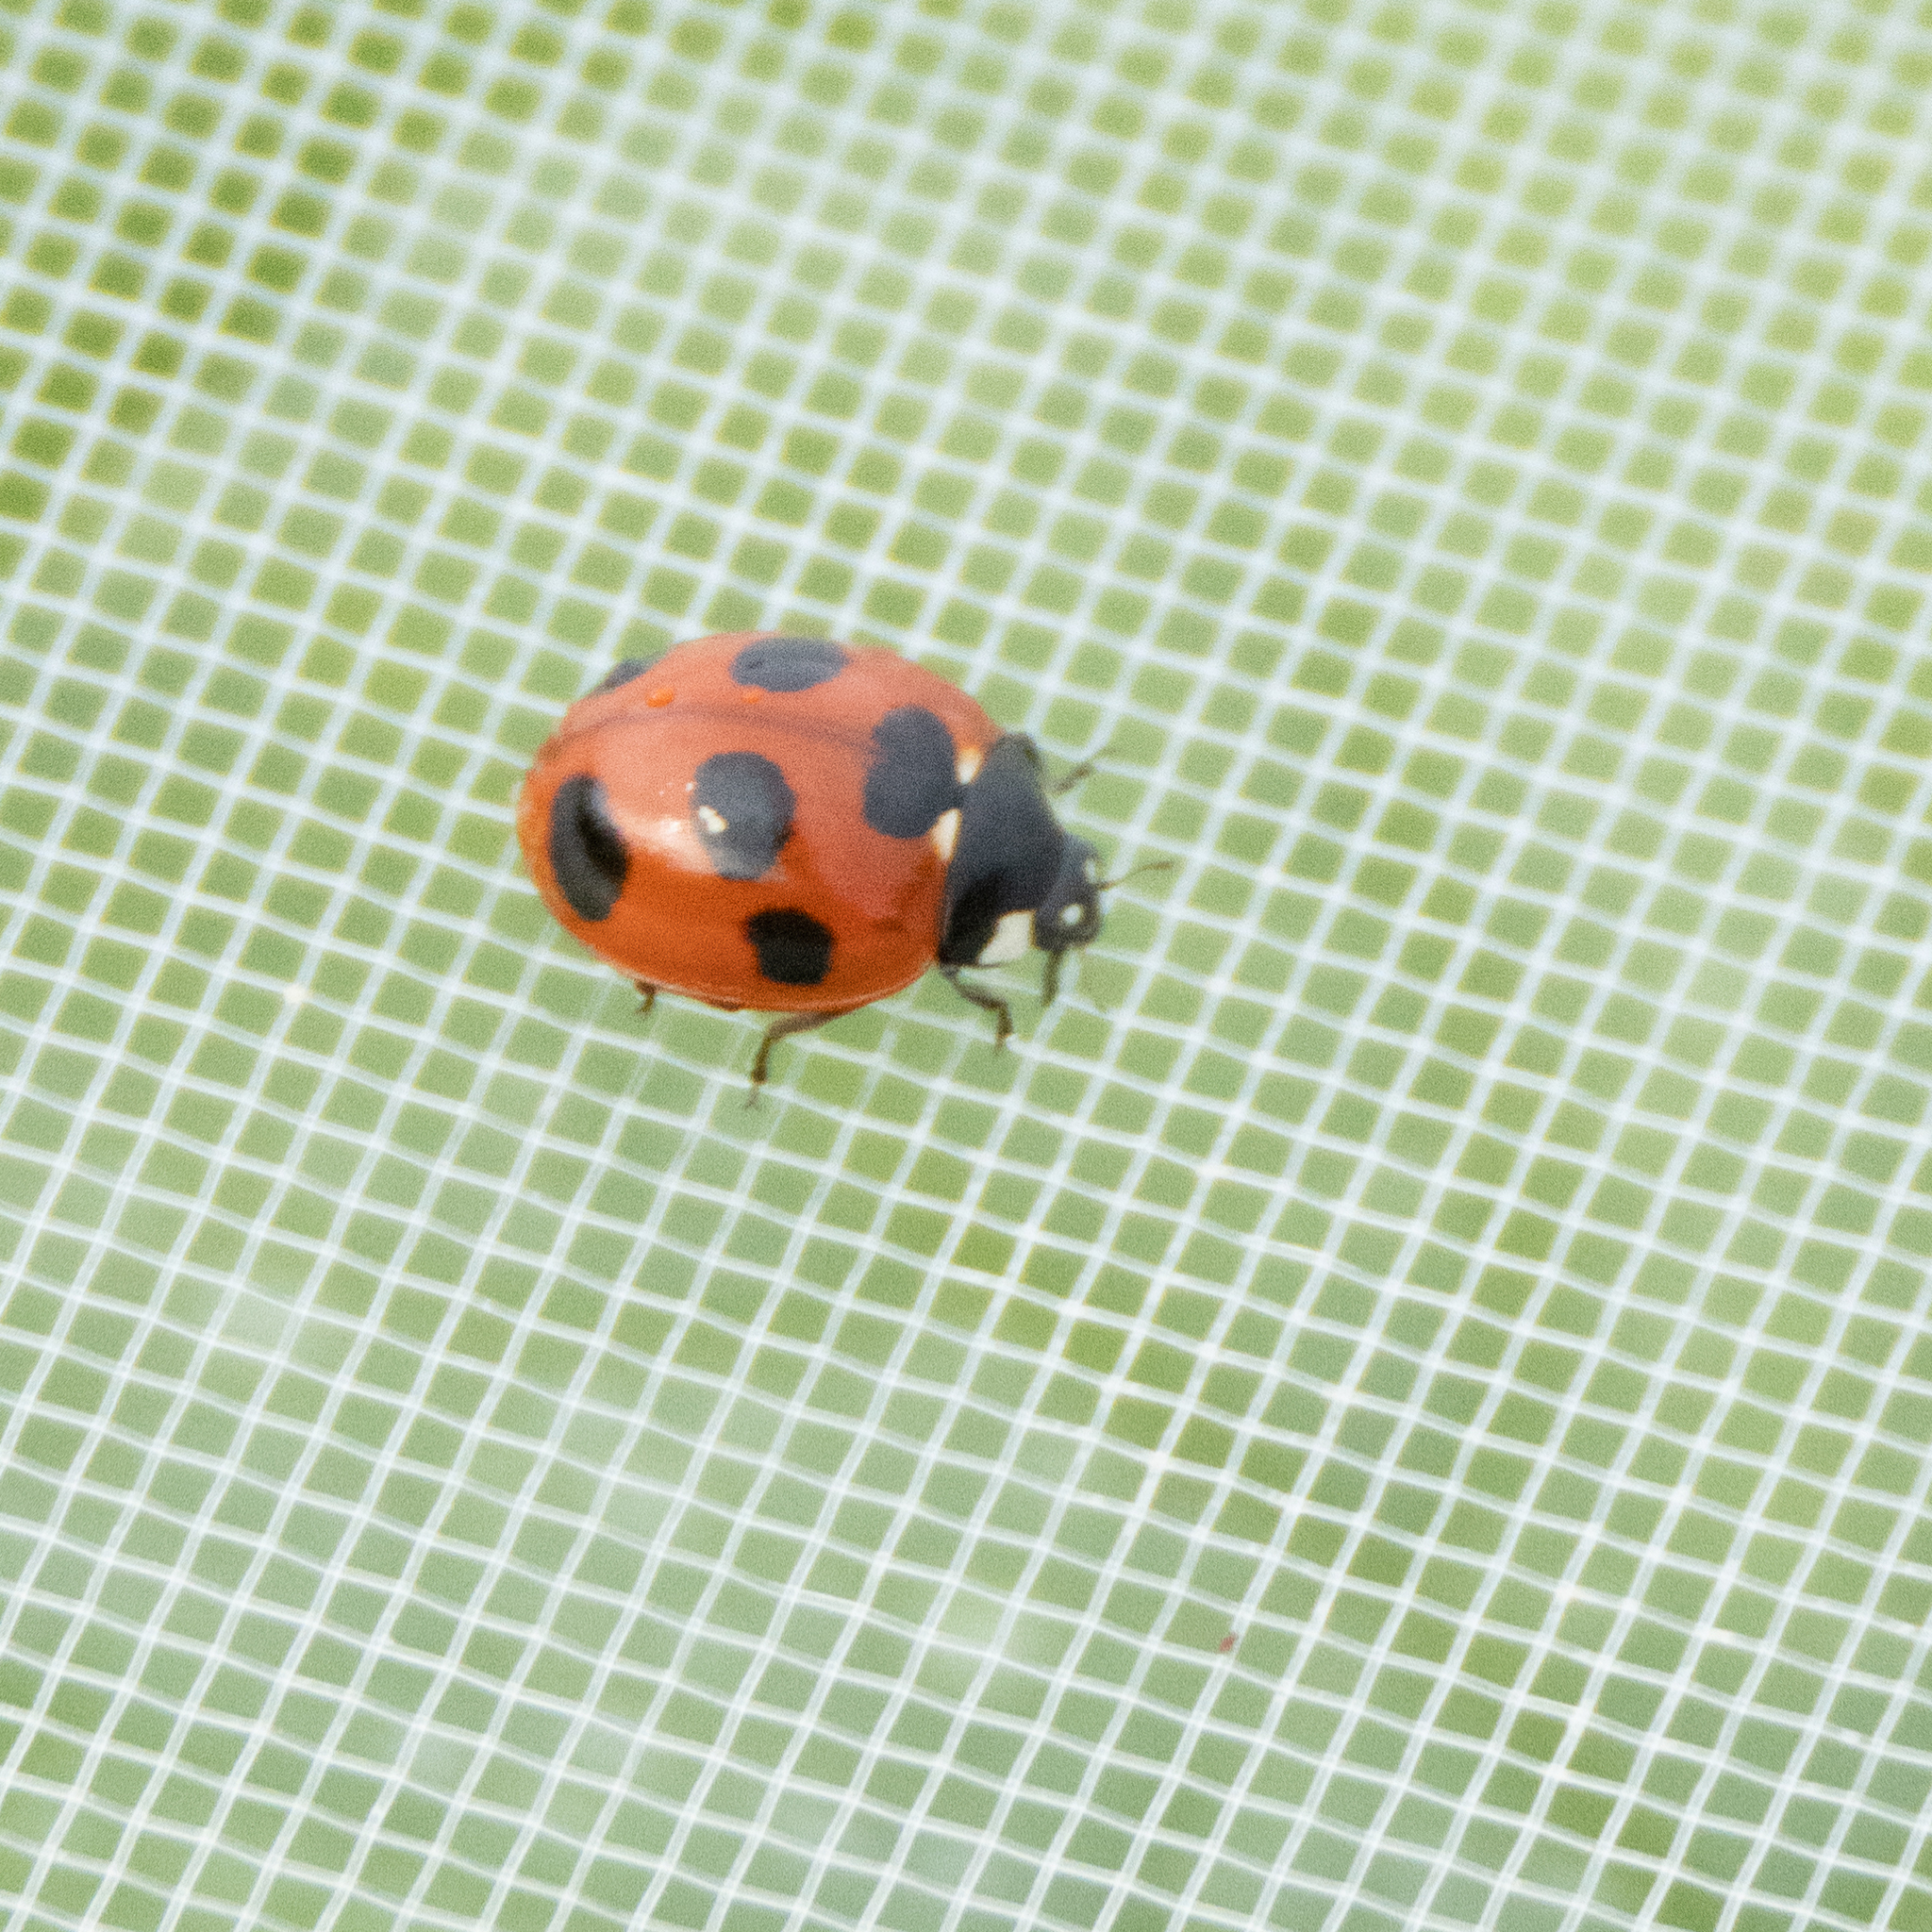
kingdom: Animalia
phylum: Arthropoda
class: Insecta
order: Coleoptera
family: Coccinellidae
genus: Coccinella
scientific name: Coccinella septempunctata
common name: Sevenspotted lady beetle
